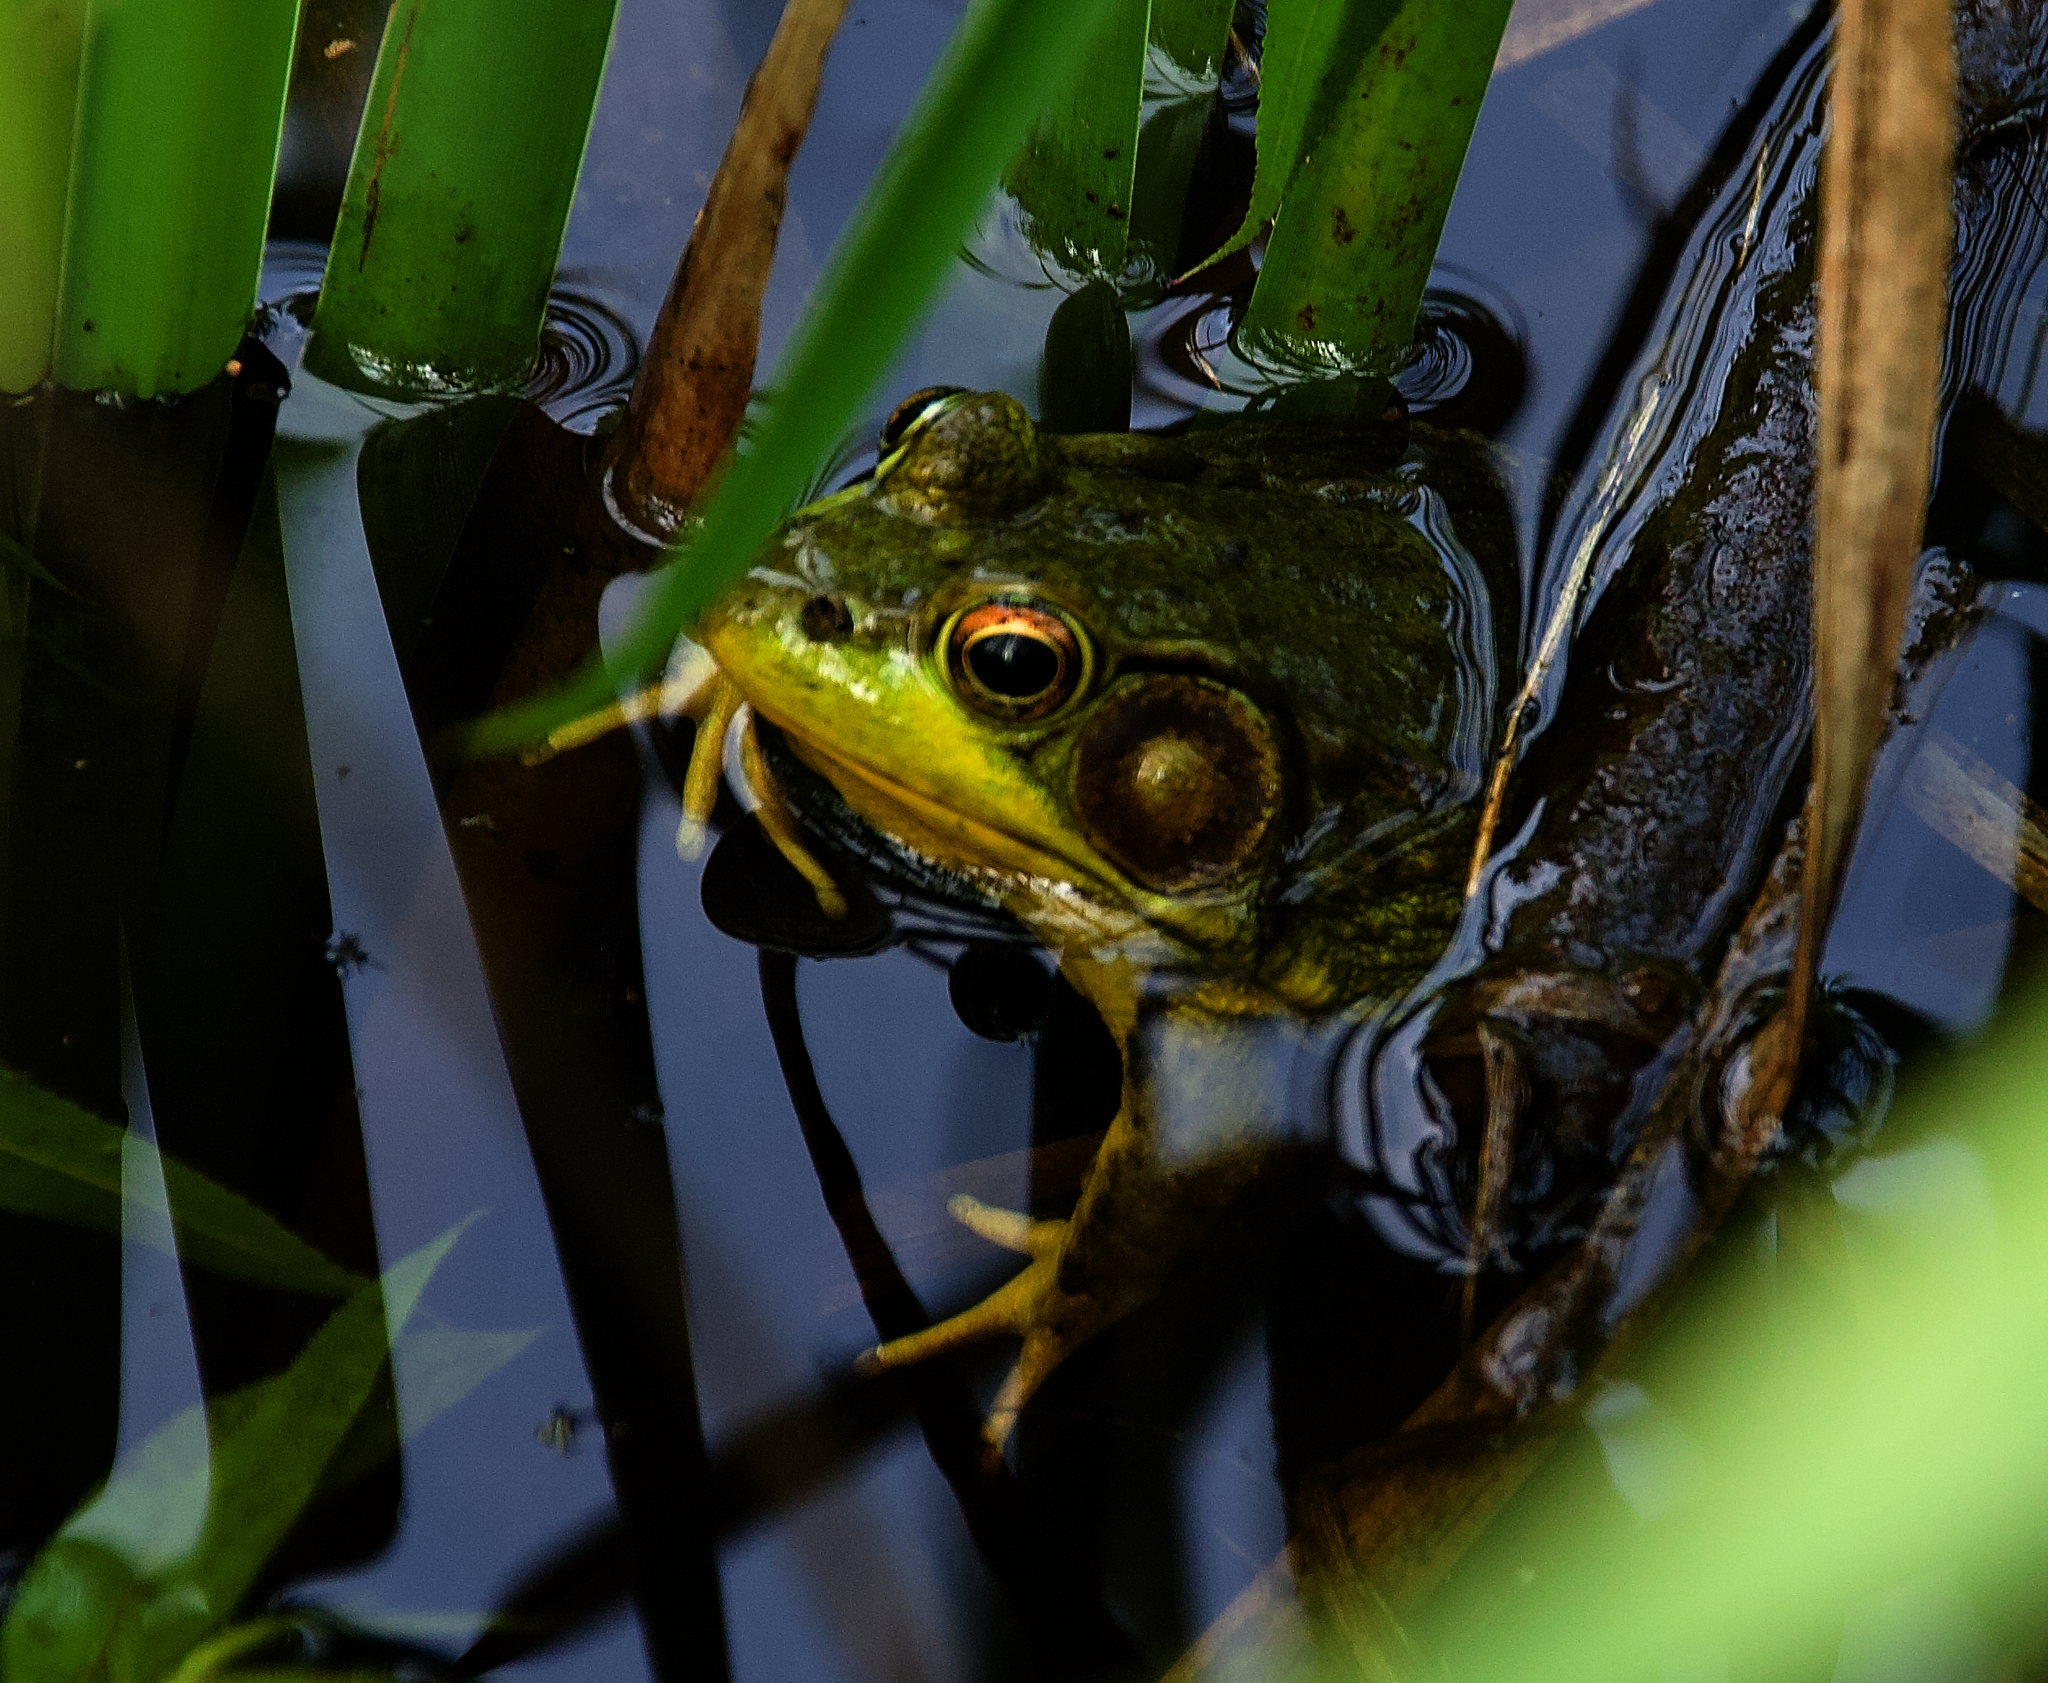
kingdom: Animalia
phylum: Chordata
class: Amphibia
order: Anura
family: Ranidae
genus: Lithobates
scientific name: Lithobates clamitans
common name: Green frog
